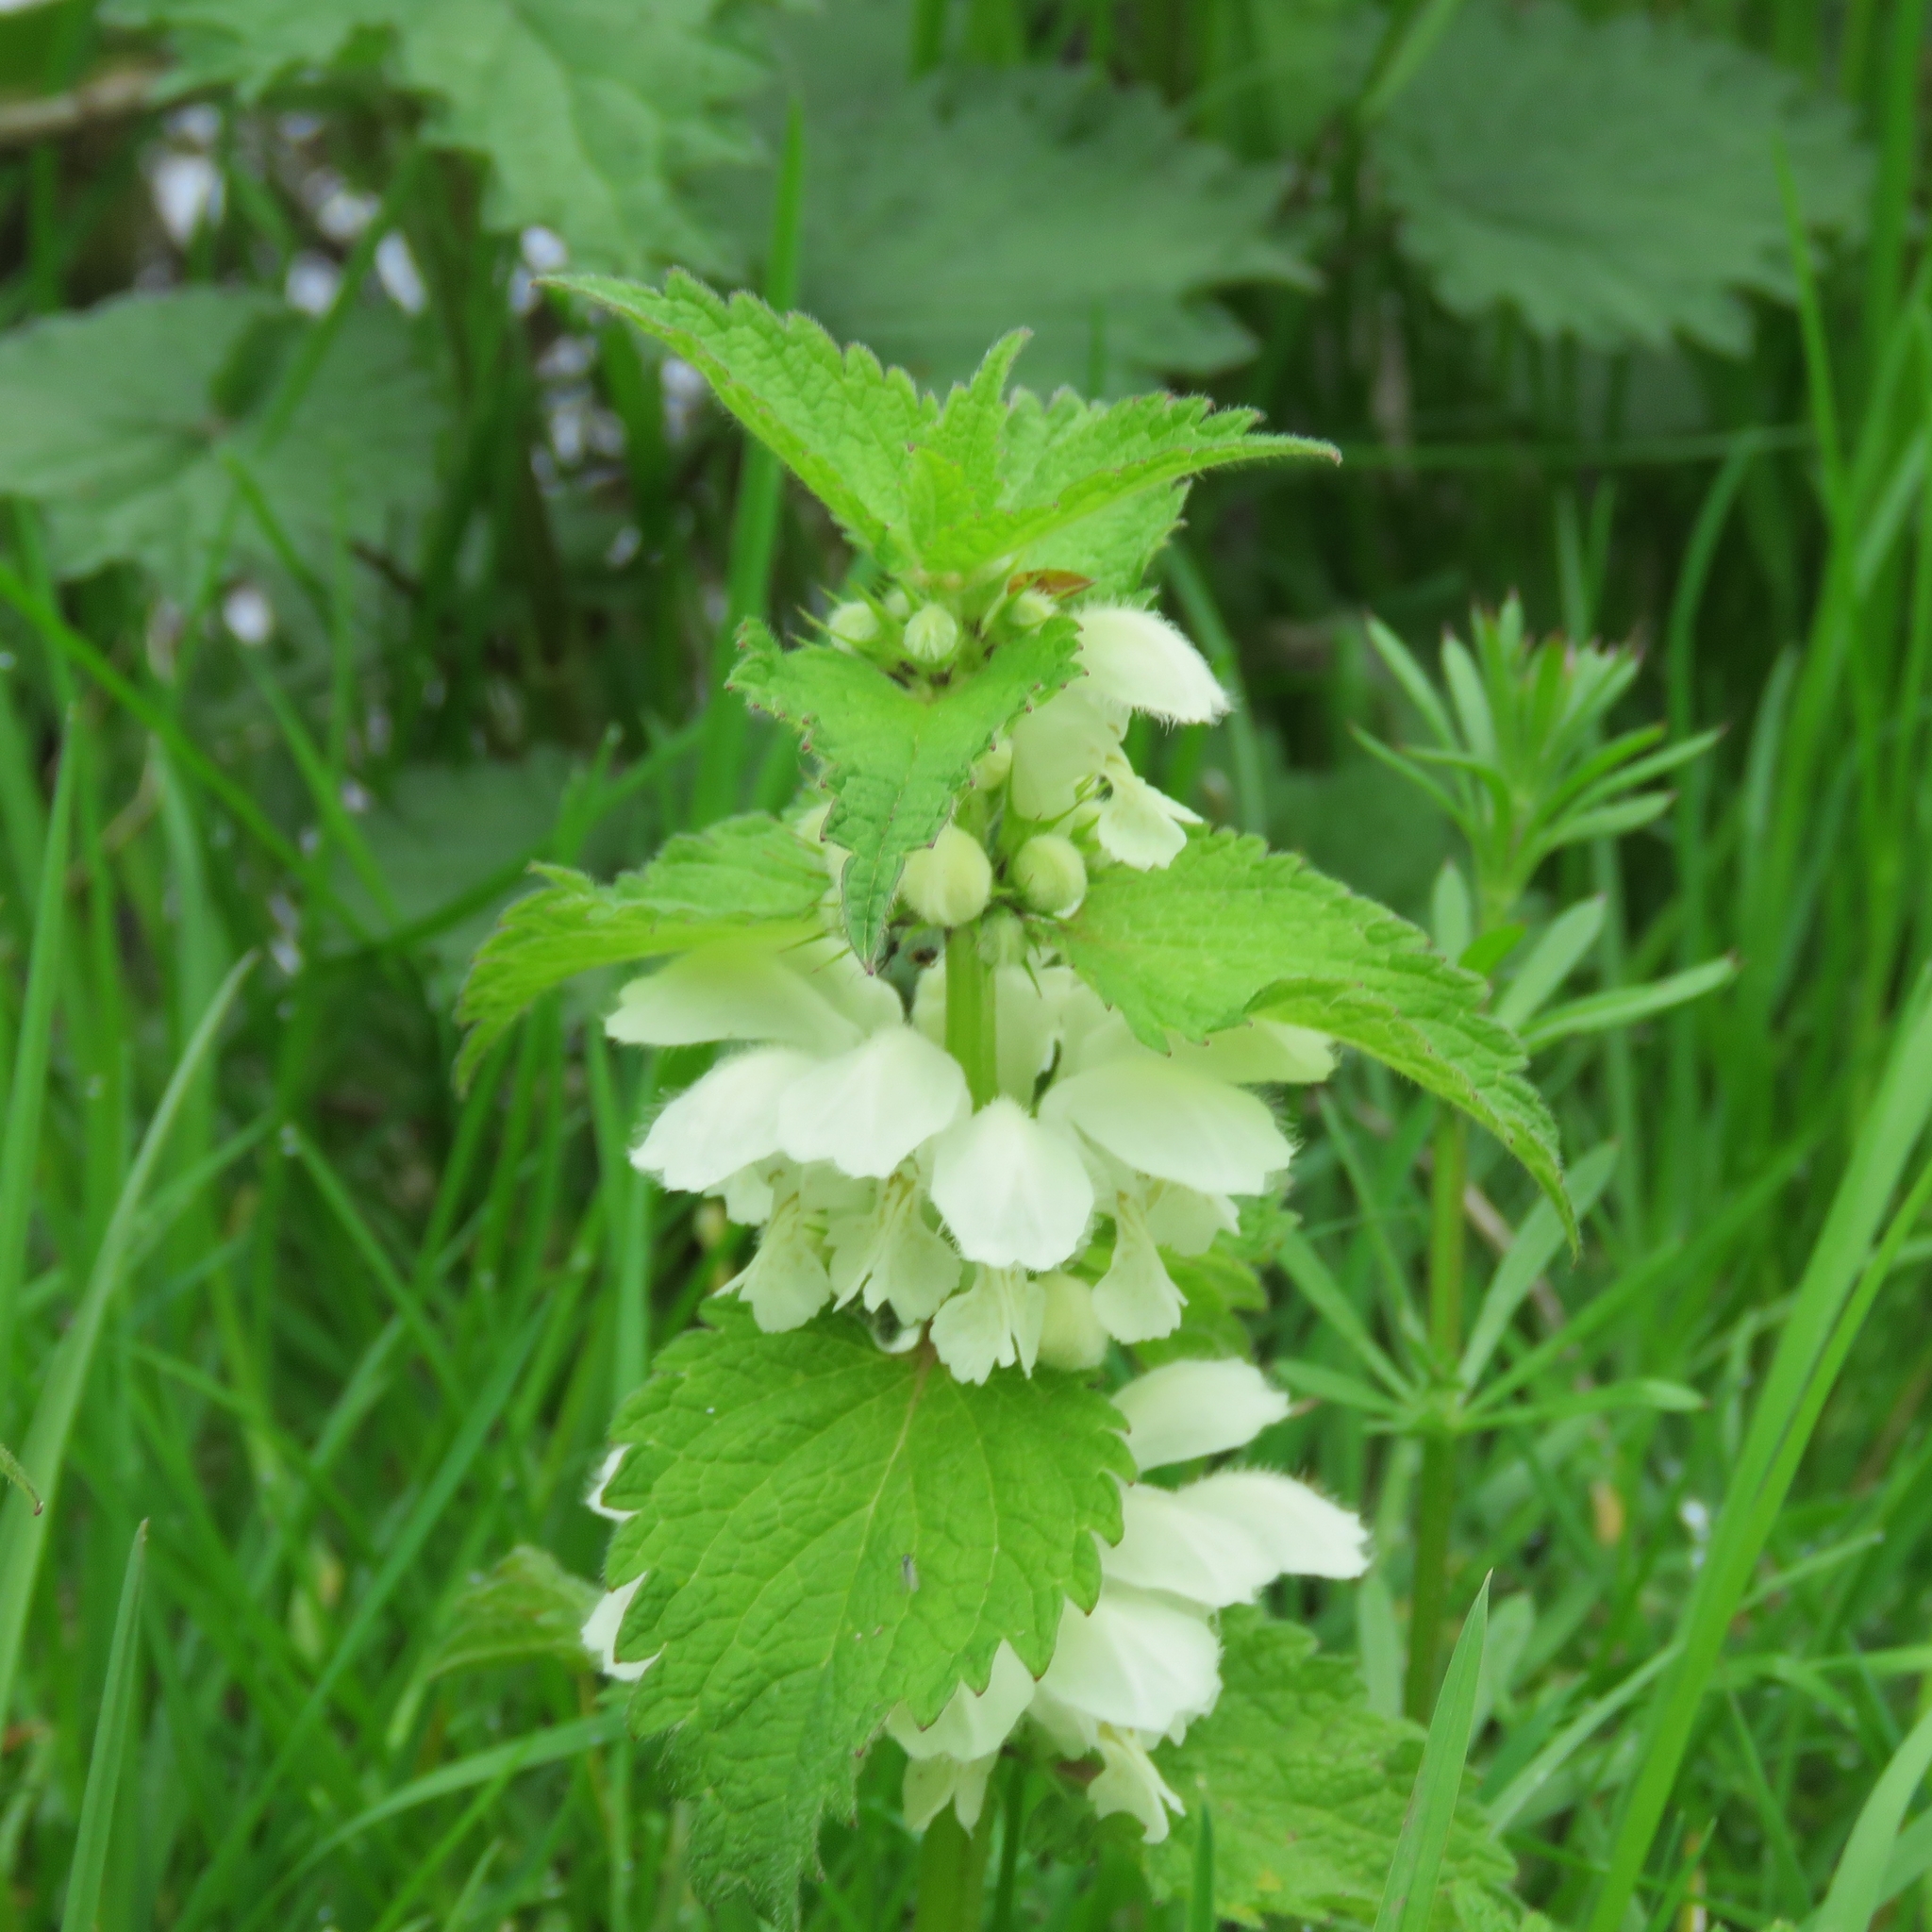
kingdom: Plantae
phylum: Tracheophyta
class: Magnoliopsida
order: Lamiales
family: Lamiaceae
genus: Lamium
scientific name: Lamium album
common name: White dead-nettle
